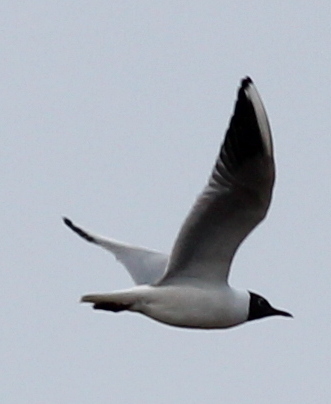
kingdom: Animalia
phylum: Chordata
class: Aves
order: Charadriiformes
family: Laridae
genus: Chroicocephalus
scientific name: Chroicocephalus ridibundus
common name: Black-headed gull
